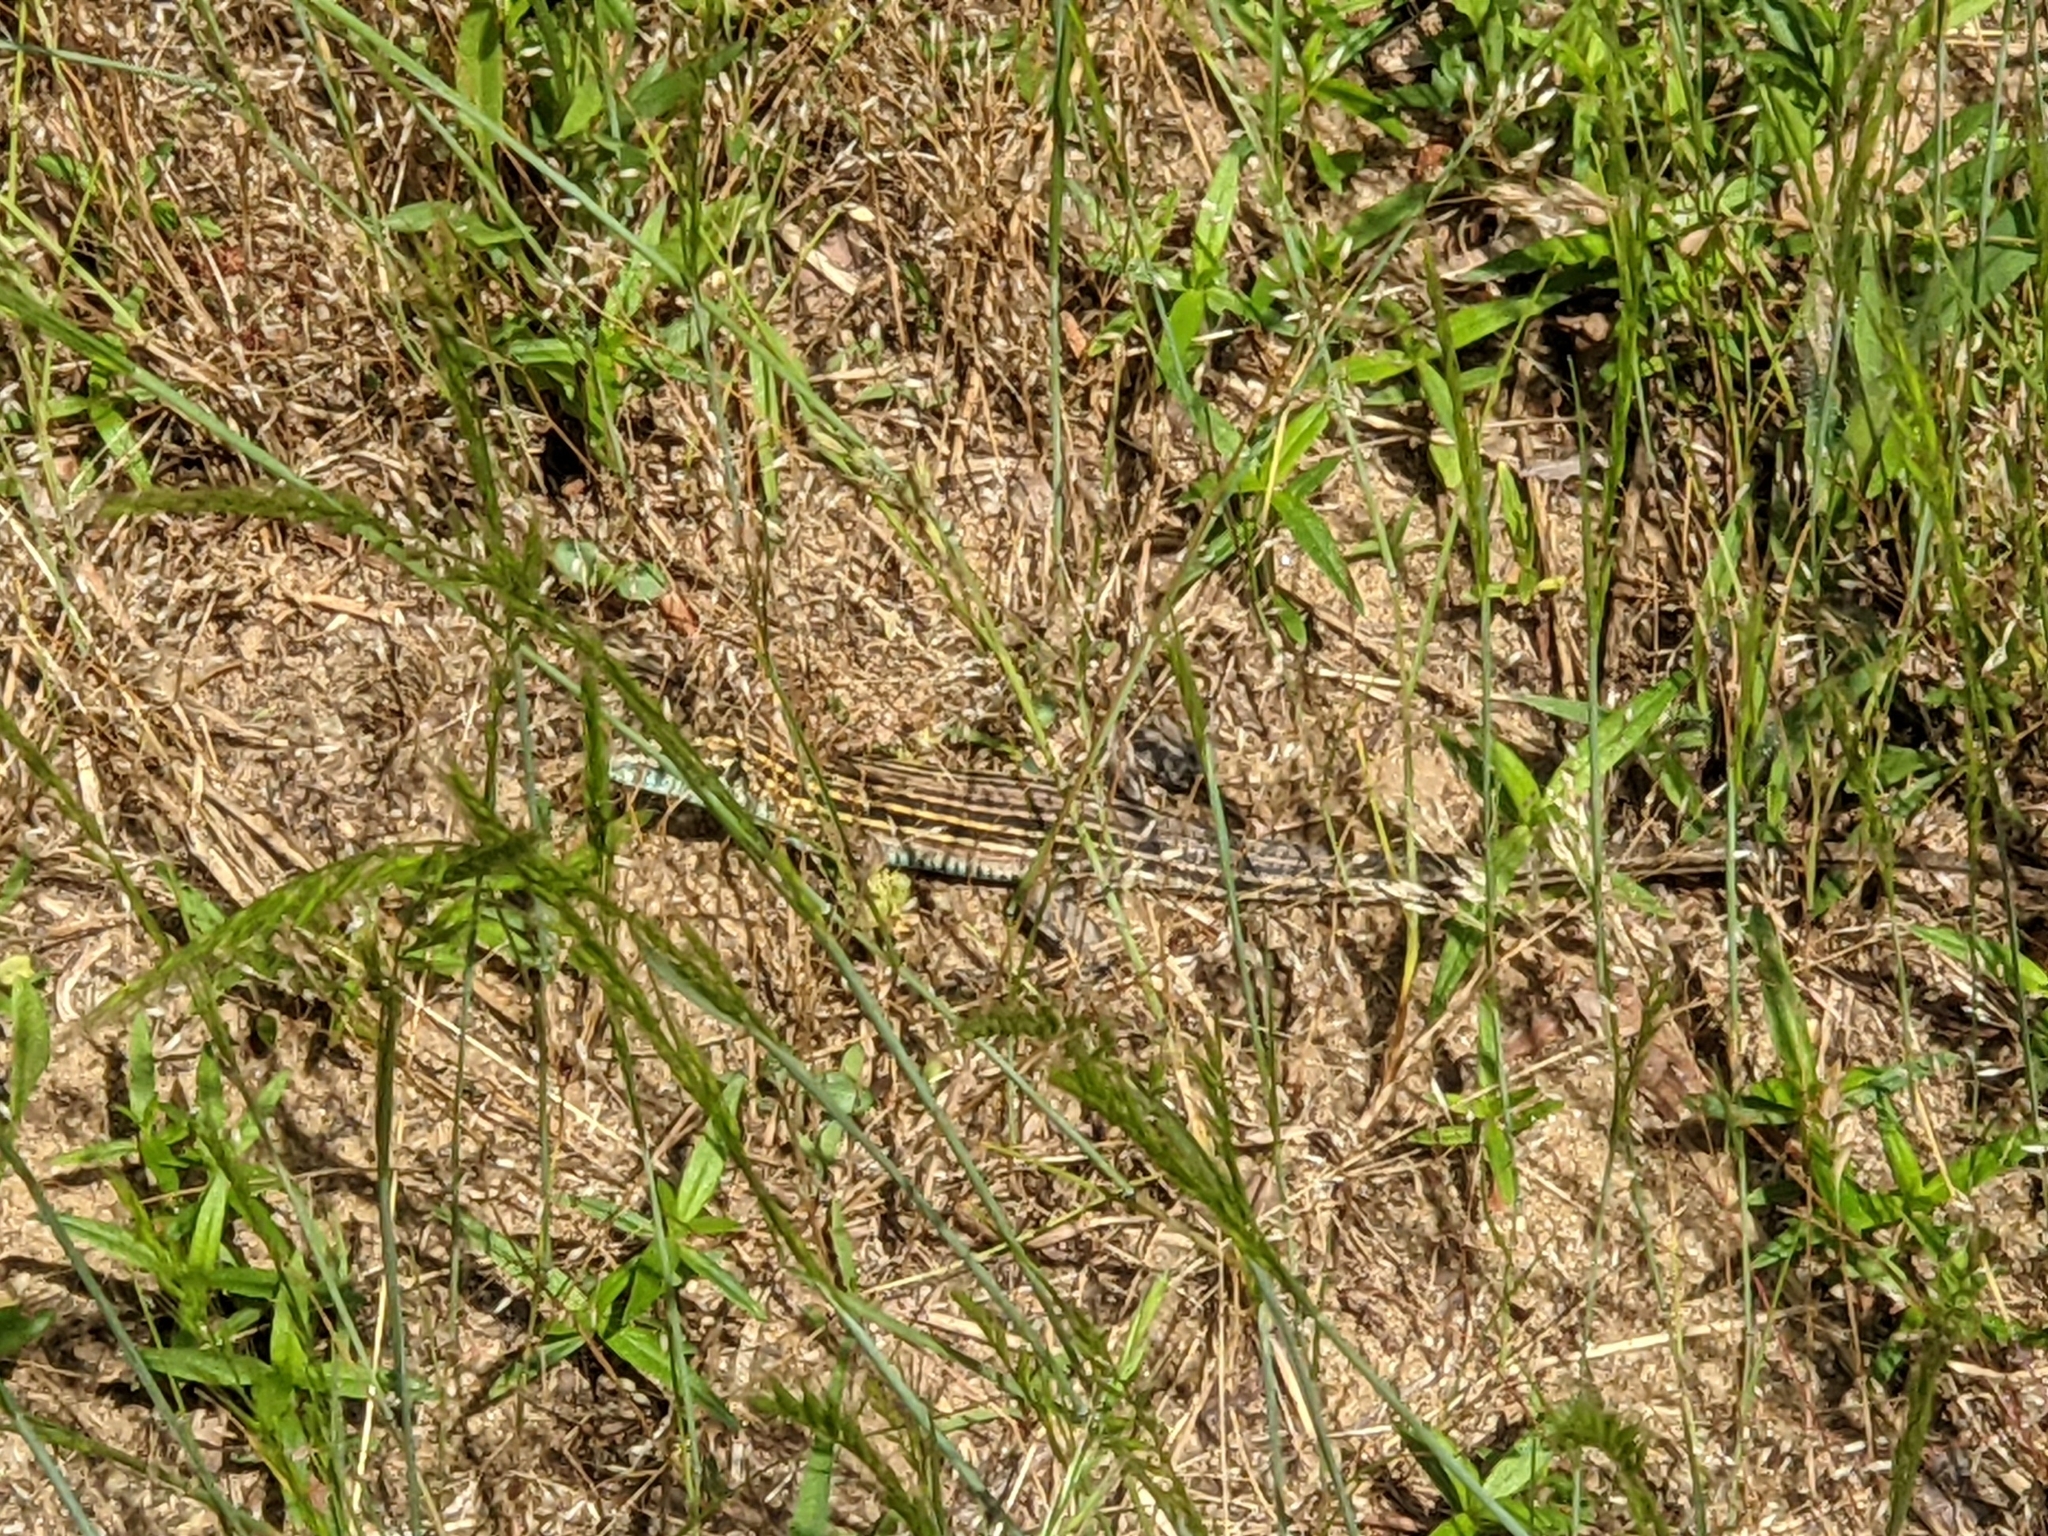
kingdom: Animalia
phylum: Chordata
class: Squamata
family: Teiidae
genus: Aspidoscelis
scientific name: Aspidoscelis sexlineatus
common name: Six-lined racerunner
